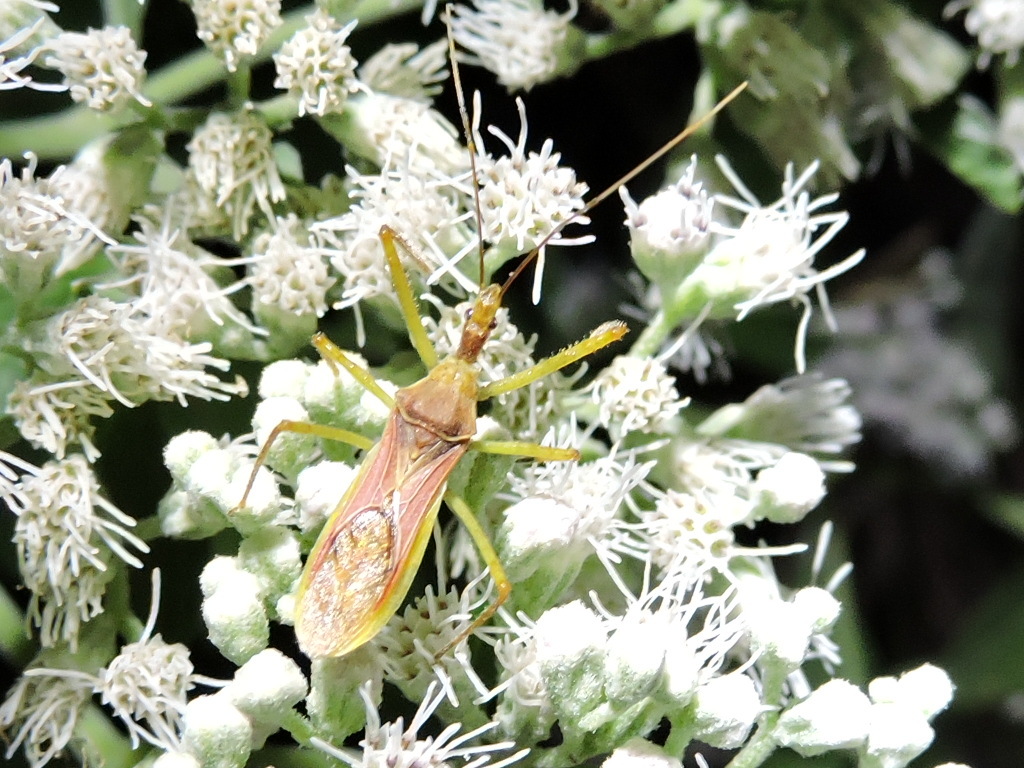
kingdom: Animalia
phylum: Arthropoda
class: Insecta
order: Hemiptera
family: Reduviidae
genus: Zelus
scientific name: Zelus renardii
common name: Assassin bug
